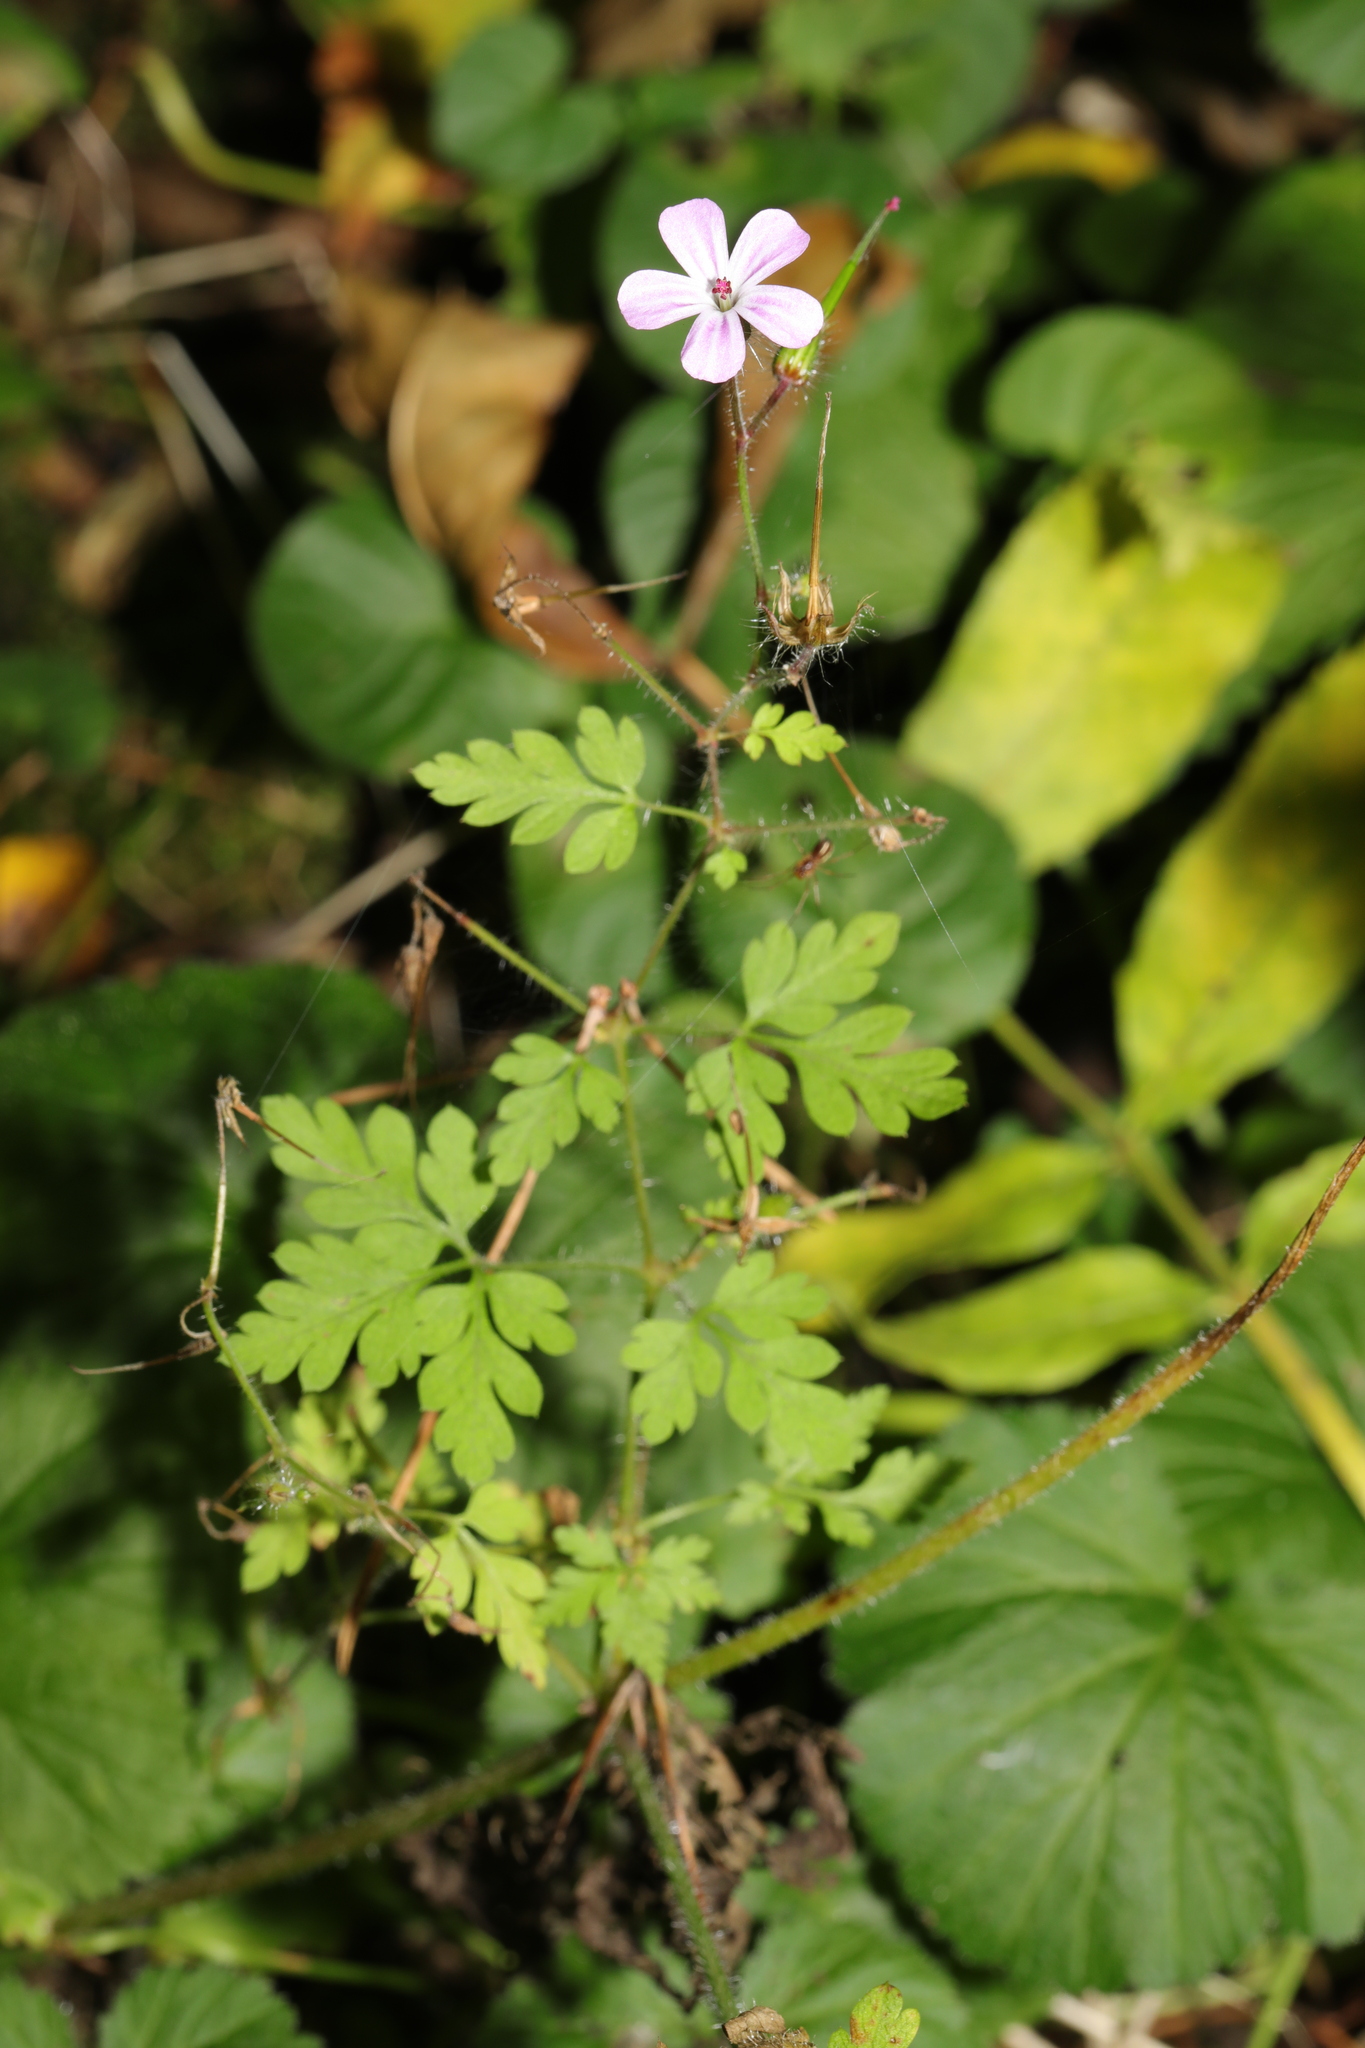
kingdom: Plantae
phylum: Tracheophyta
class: Magnoliopsida
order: Geraniales
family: Geraniaceae
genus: Geranium
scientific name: Geranium robertianum
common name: Herb-robert
